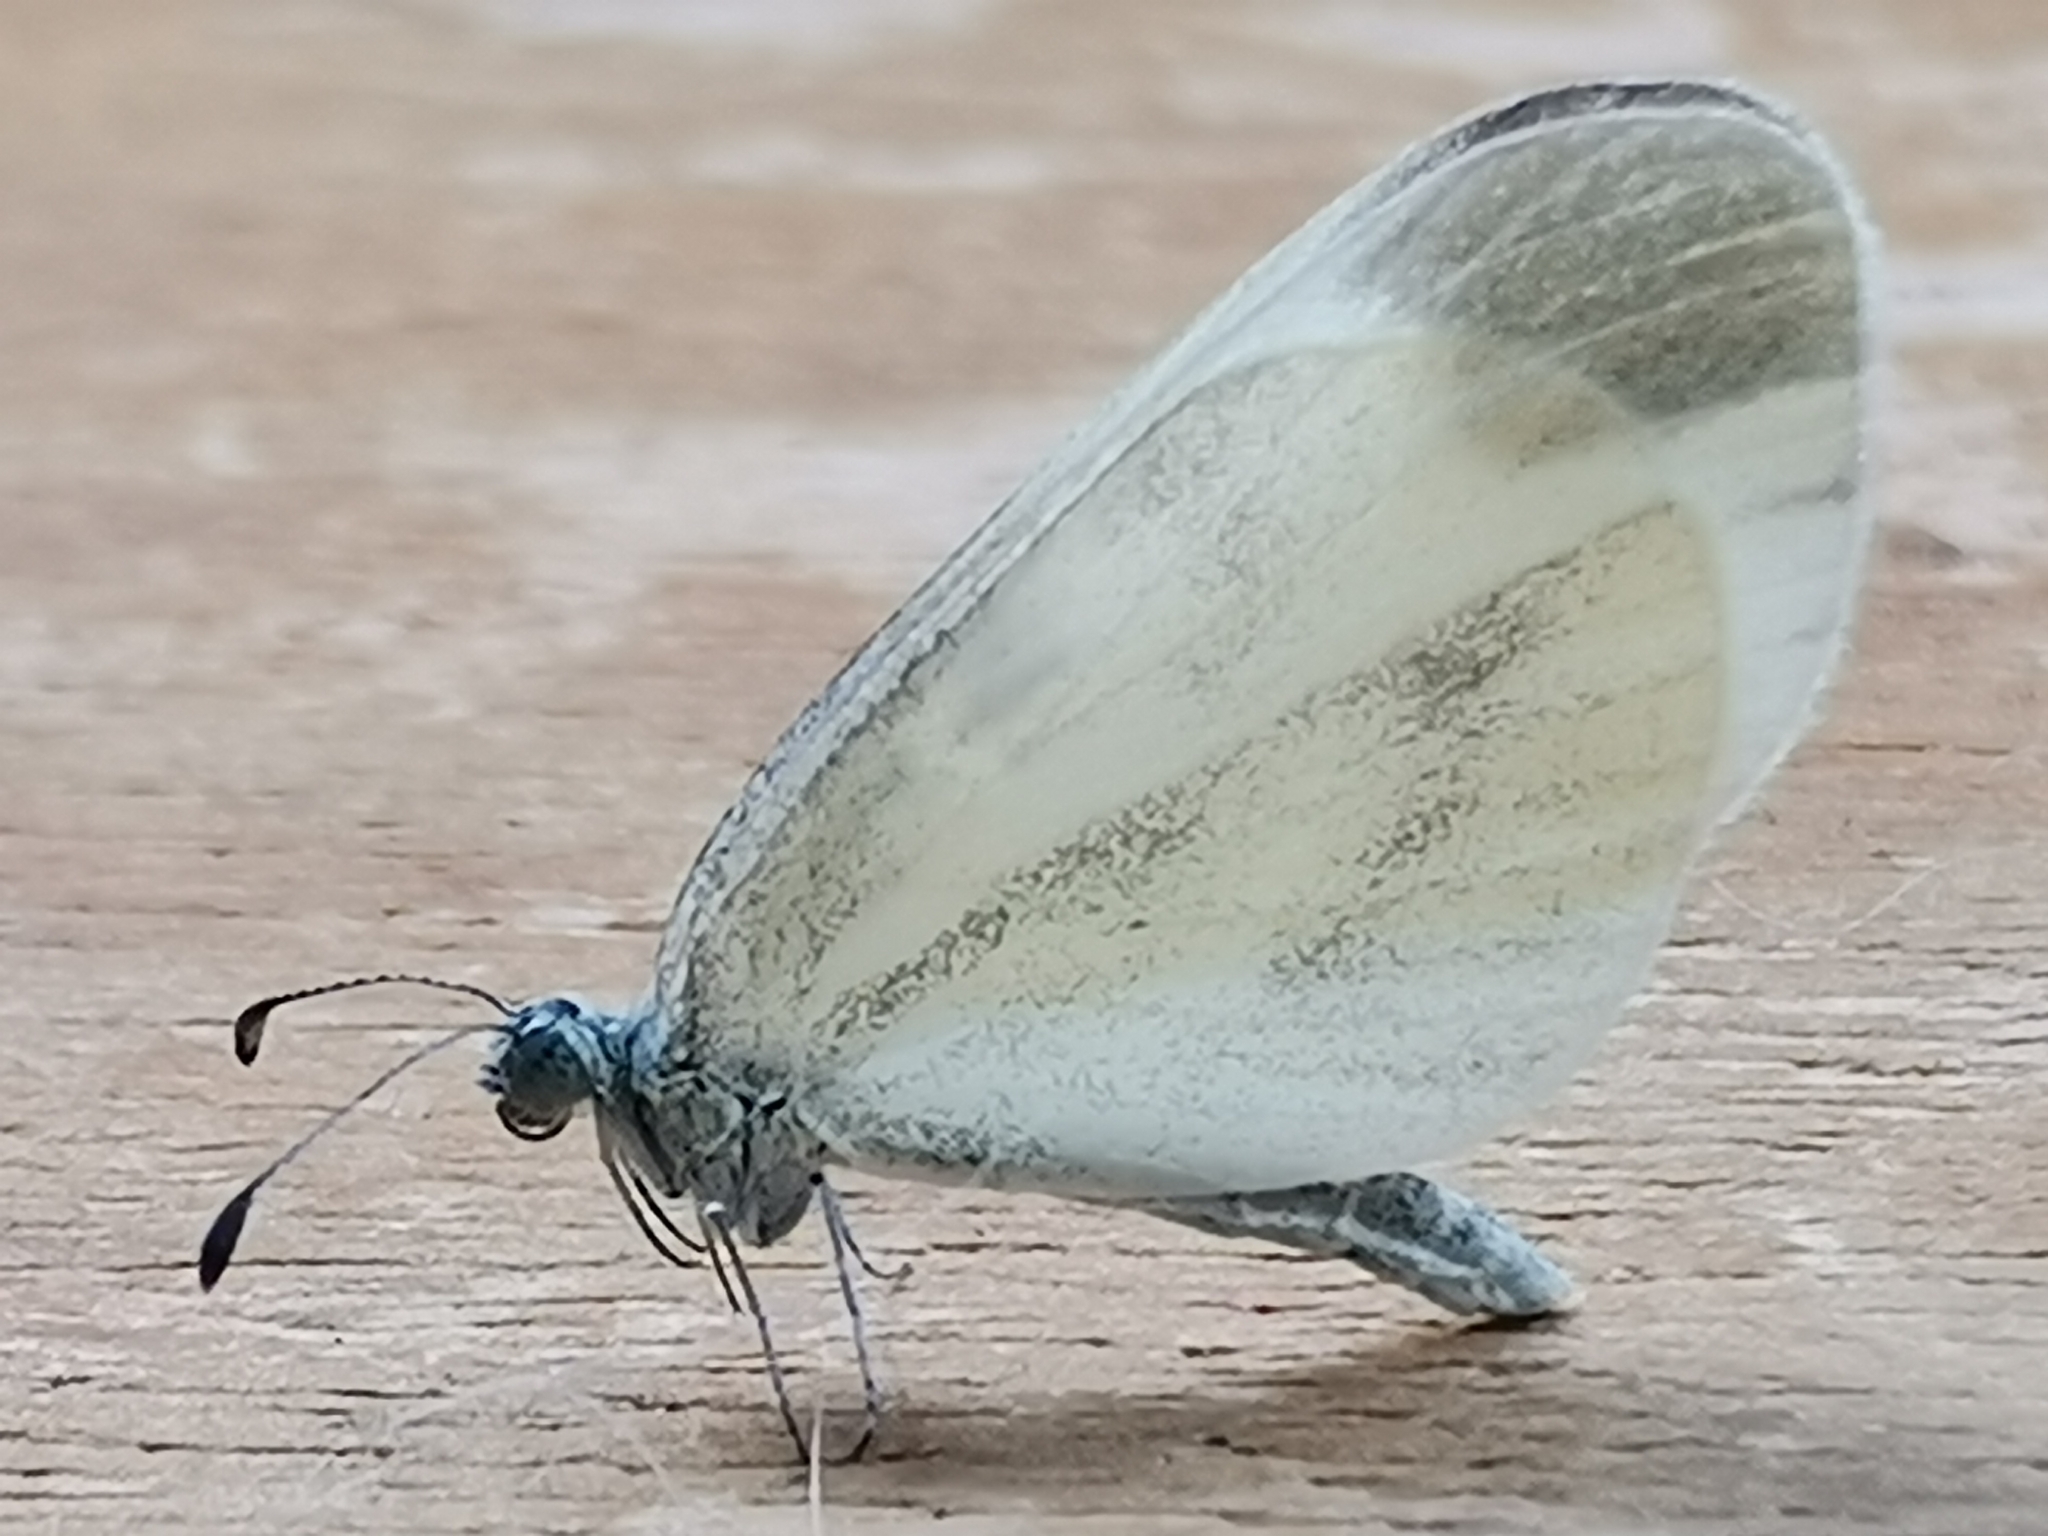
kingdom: Animalia
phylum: Arthropoda
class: Insecta
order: Lepidoptera
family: Pieridae
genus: Leptidea
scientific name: Leptidea
